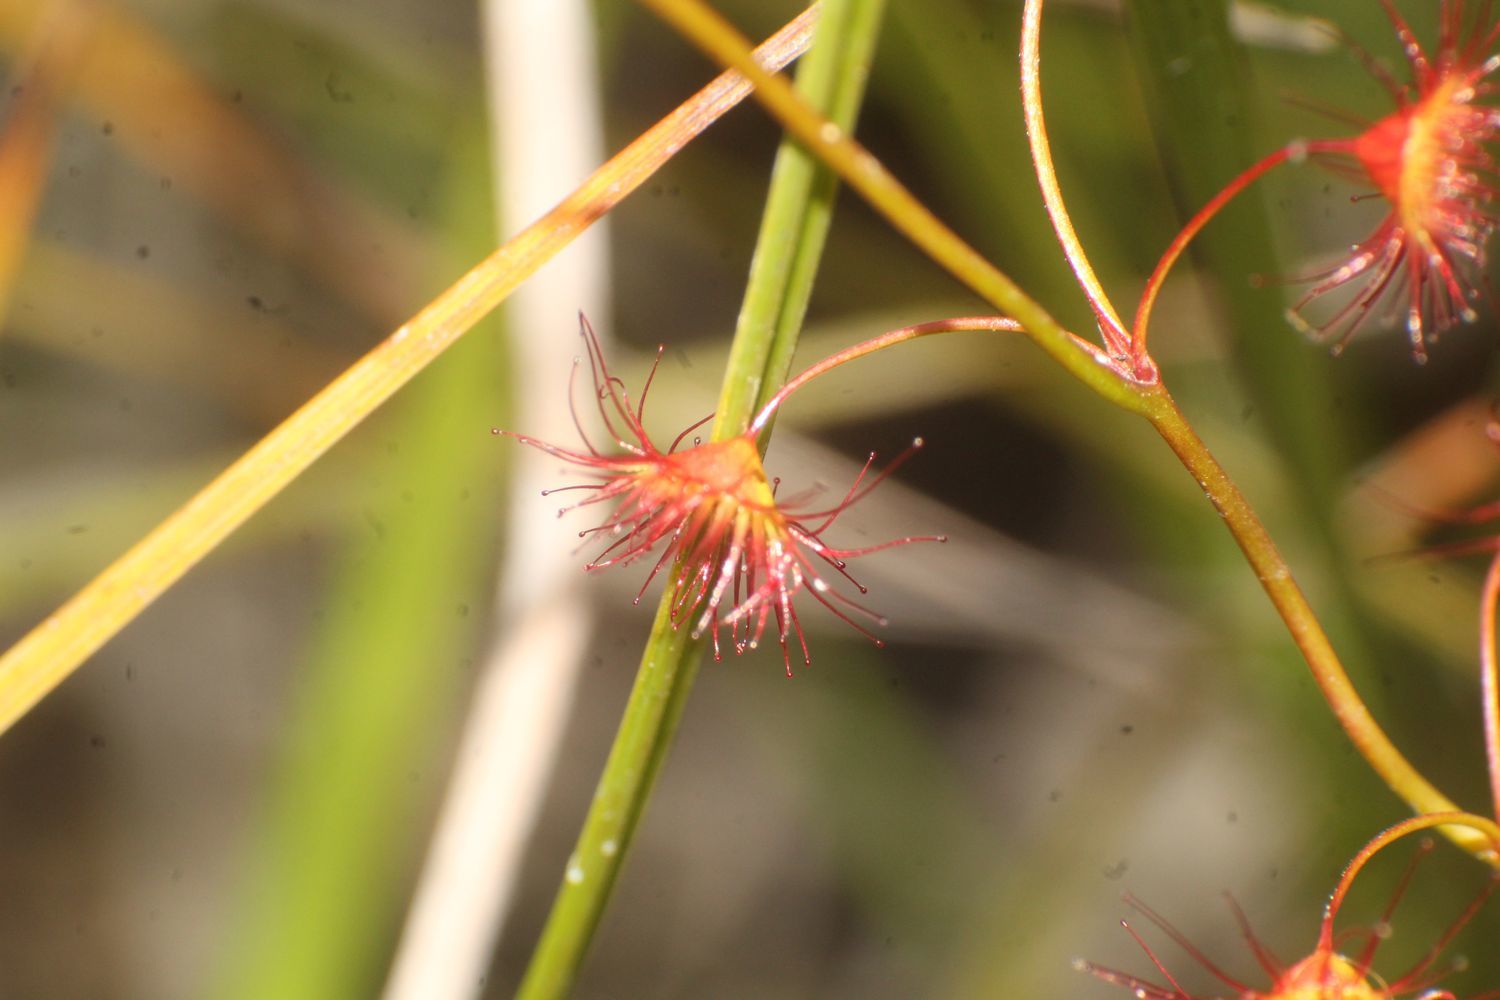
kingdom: Plantae
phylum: Tracheophyta
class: Magnoliopsida
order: Caryophyllales
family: Droseraceae
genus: Drosera
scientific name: Drosera
